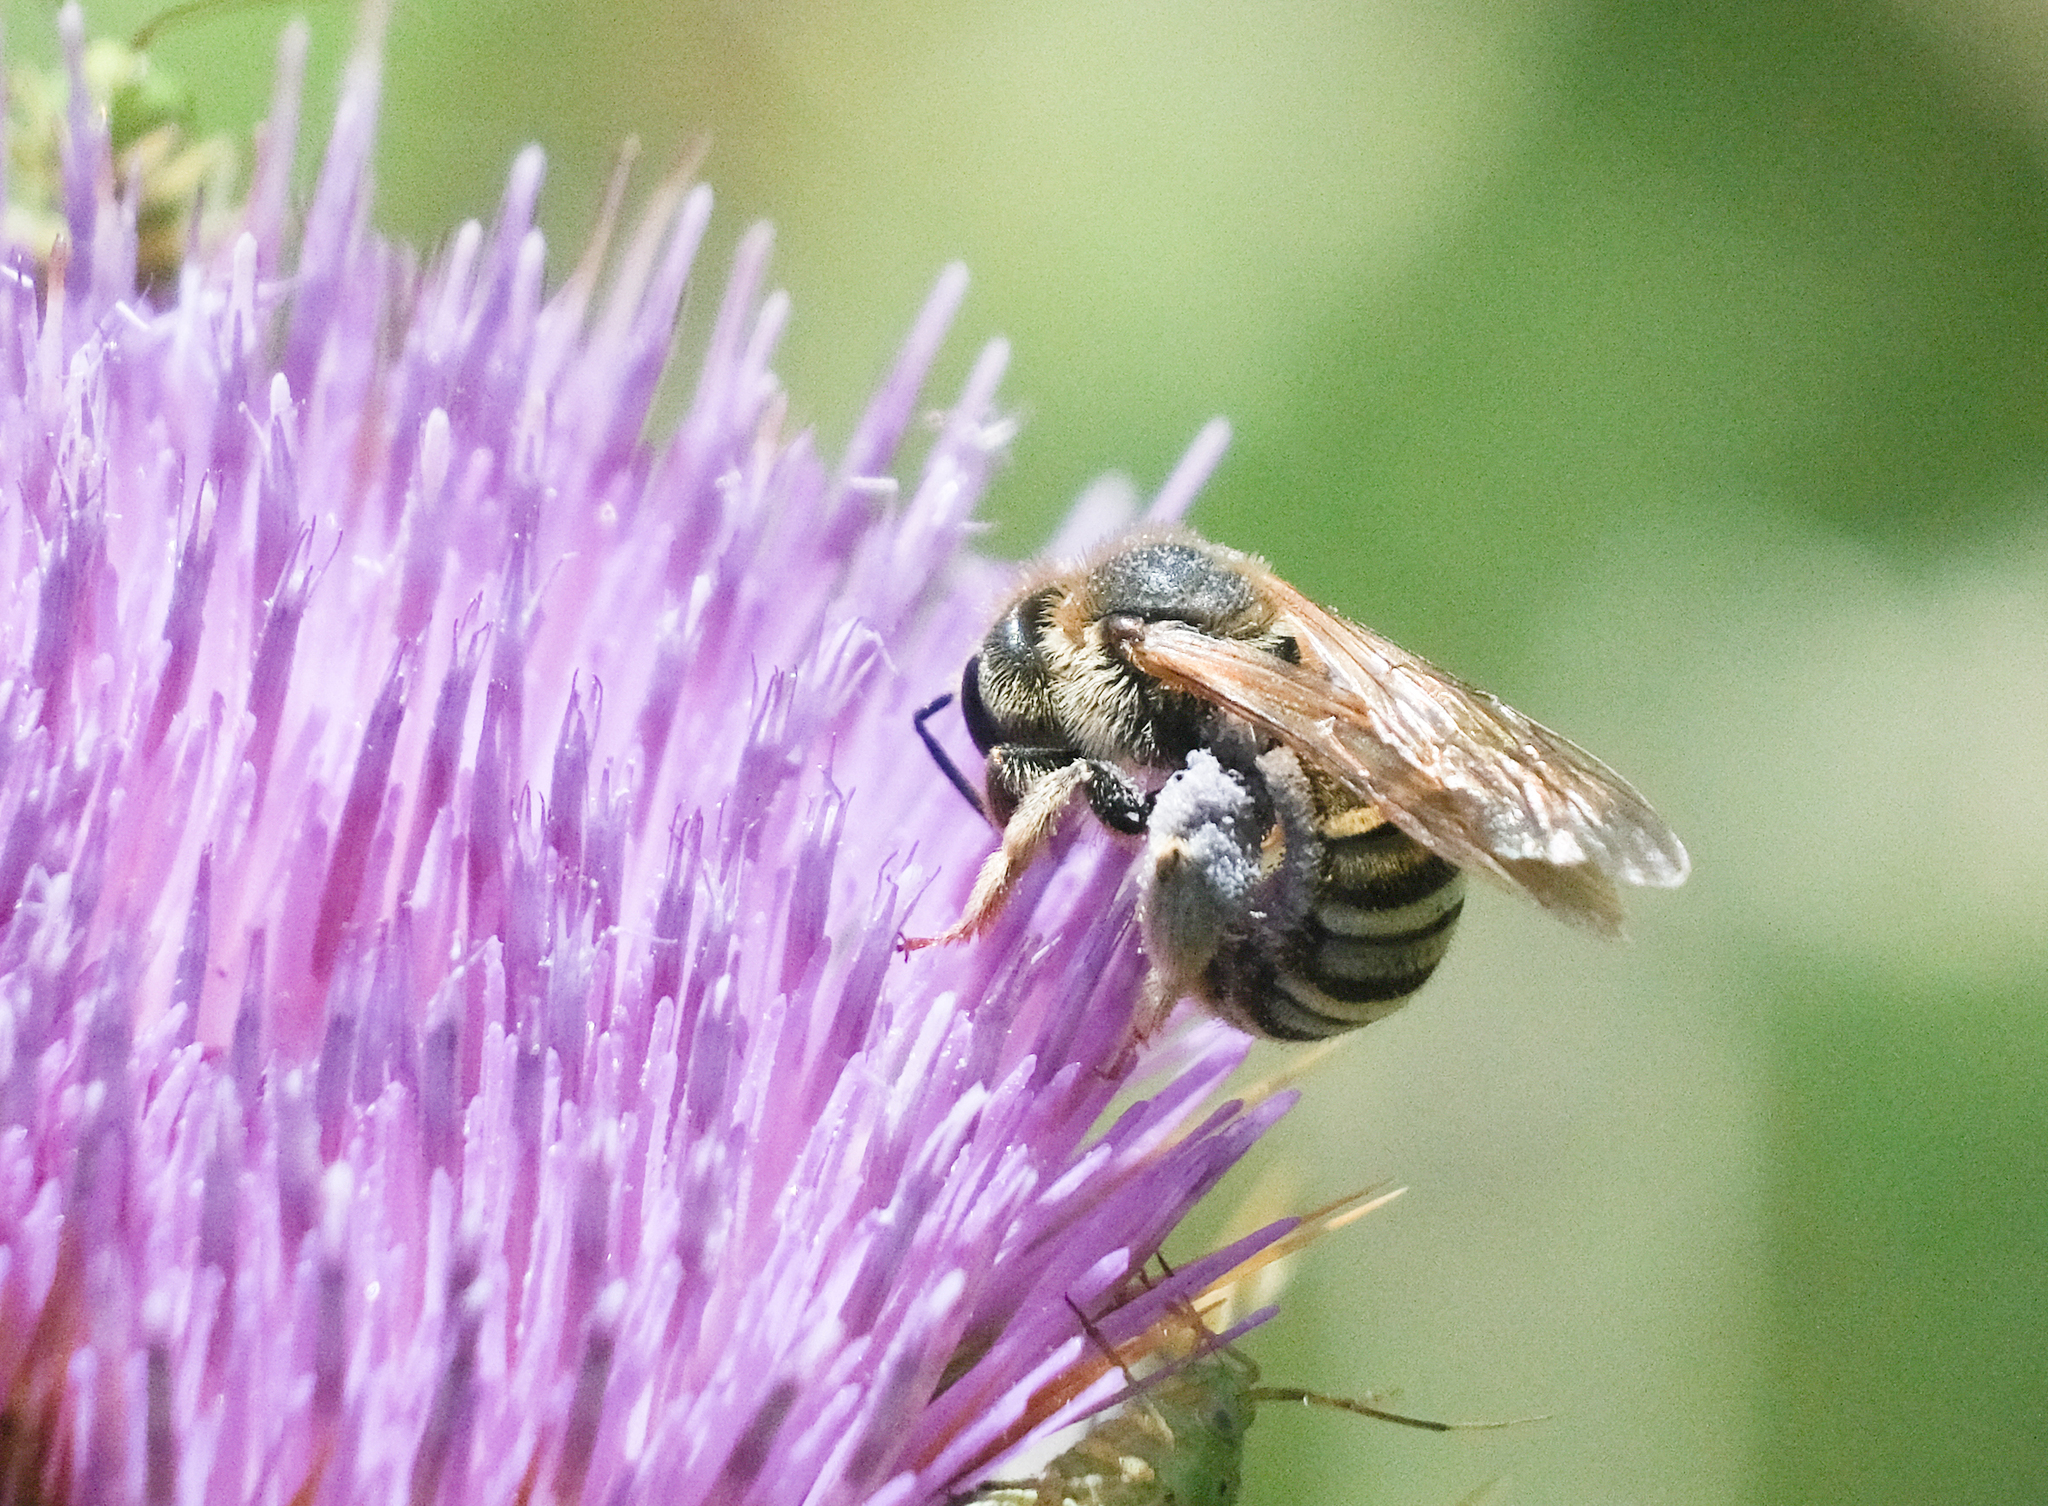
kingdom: Animalia
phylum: Arthropoda
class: Insecta
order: Hymenoptera
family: Halictidae
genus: Halictus
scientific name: Halictus scabiosae
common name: Great banded furrow bee
